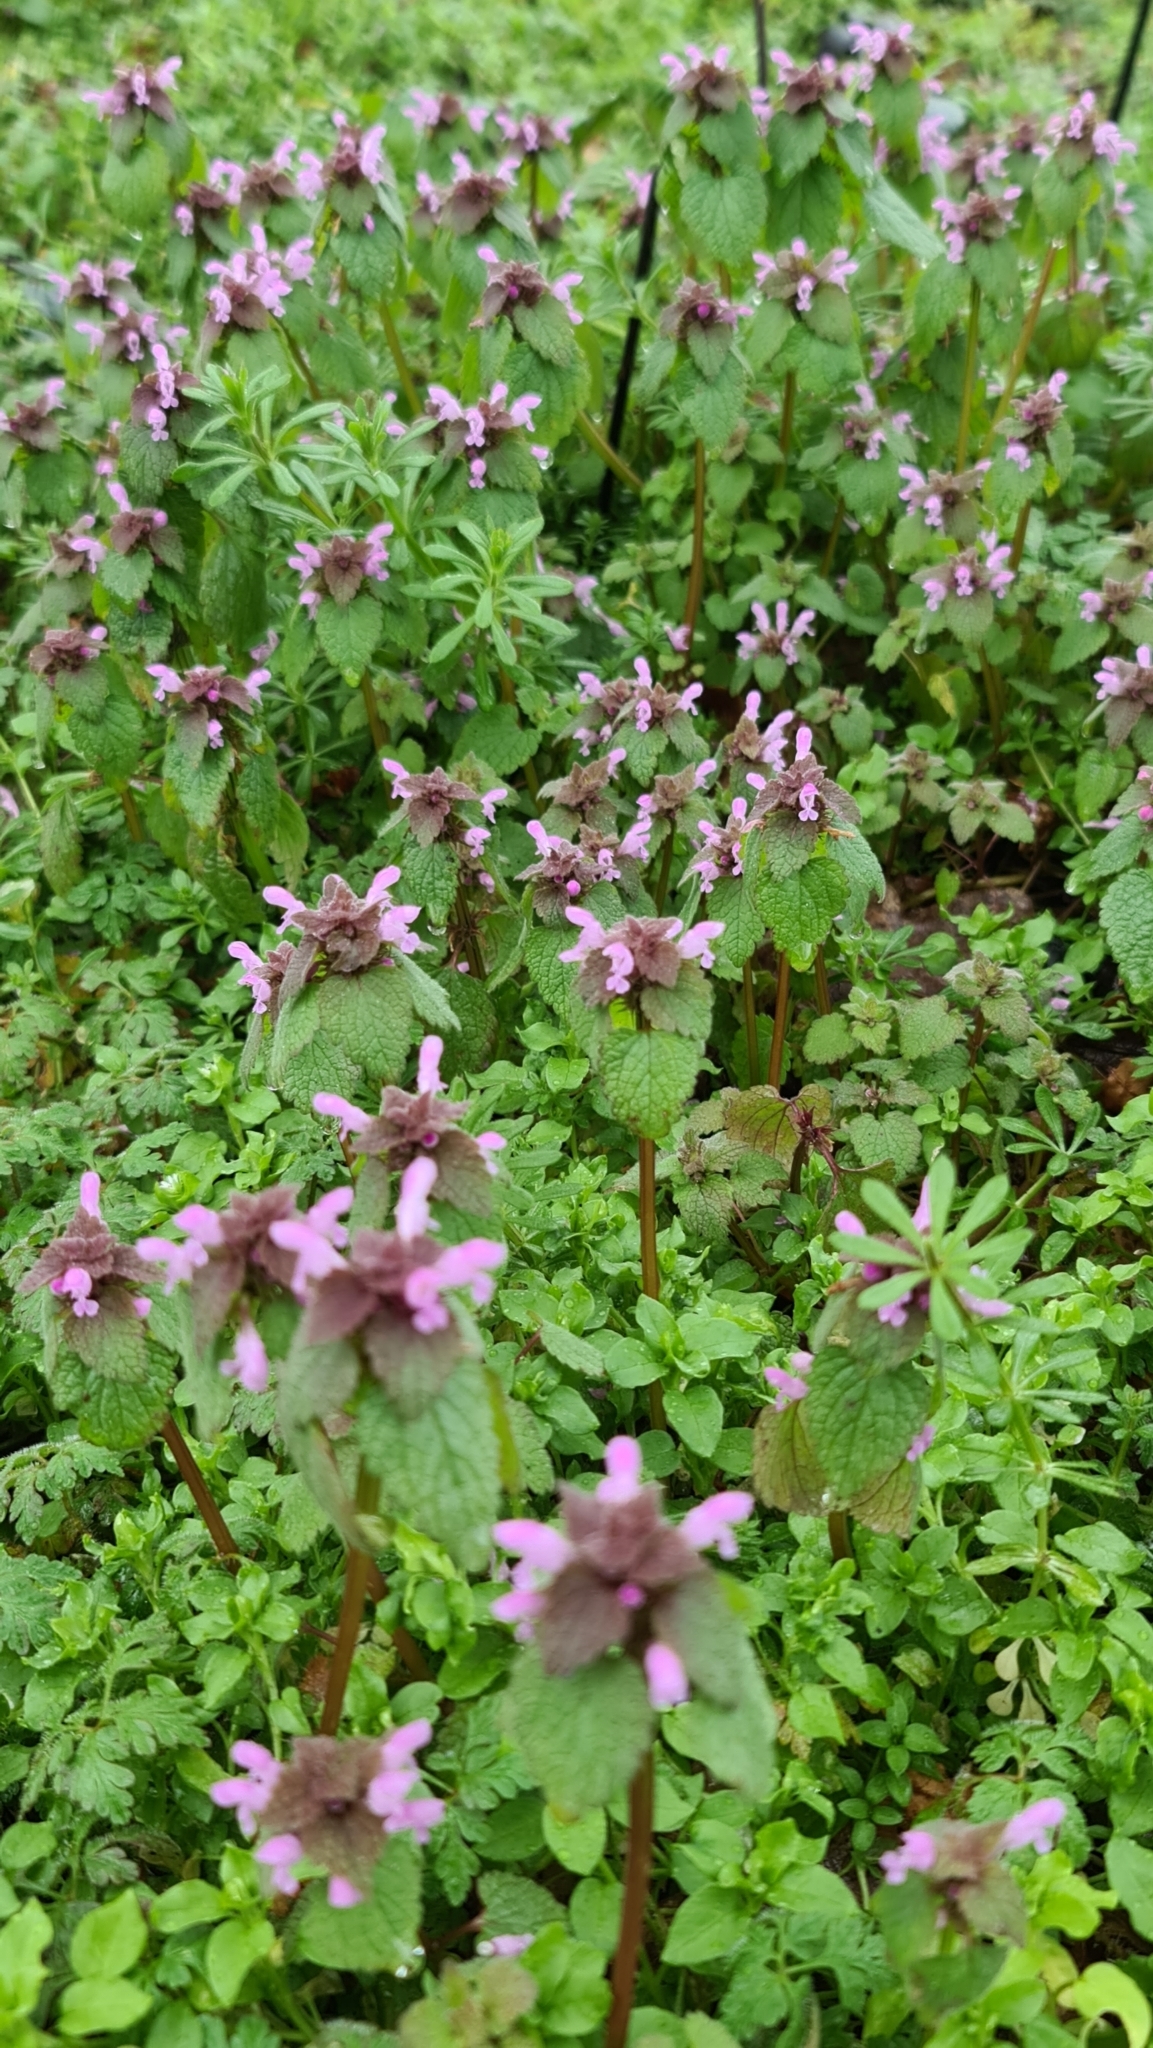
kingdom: Plantae
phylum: Tracheophyta
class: Magnoliopsida
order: Lamiales
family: Lamiaceae
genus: Lamium
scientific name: Lamium purpureum
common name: Red dead-nettle
